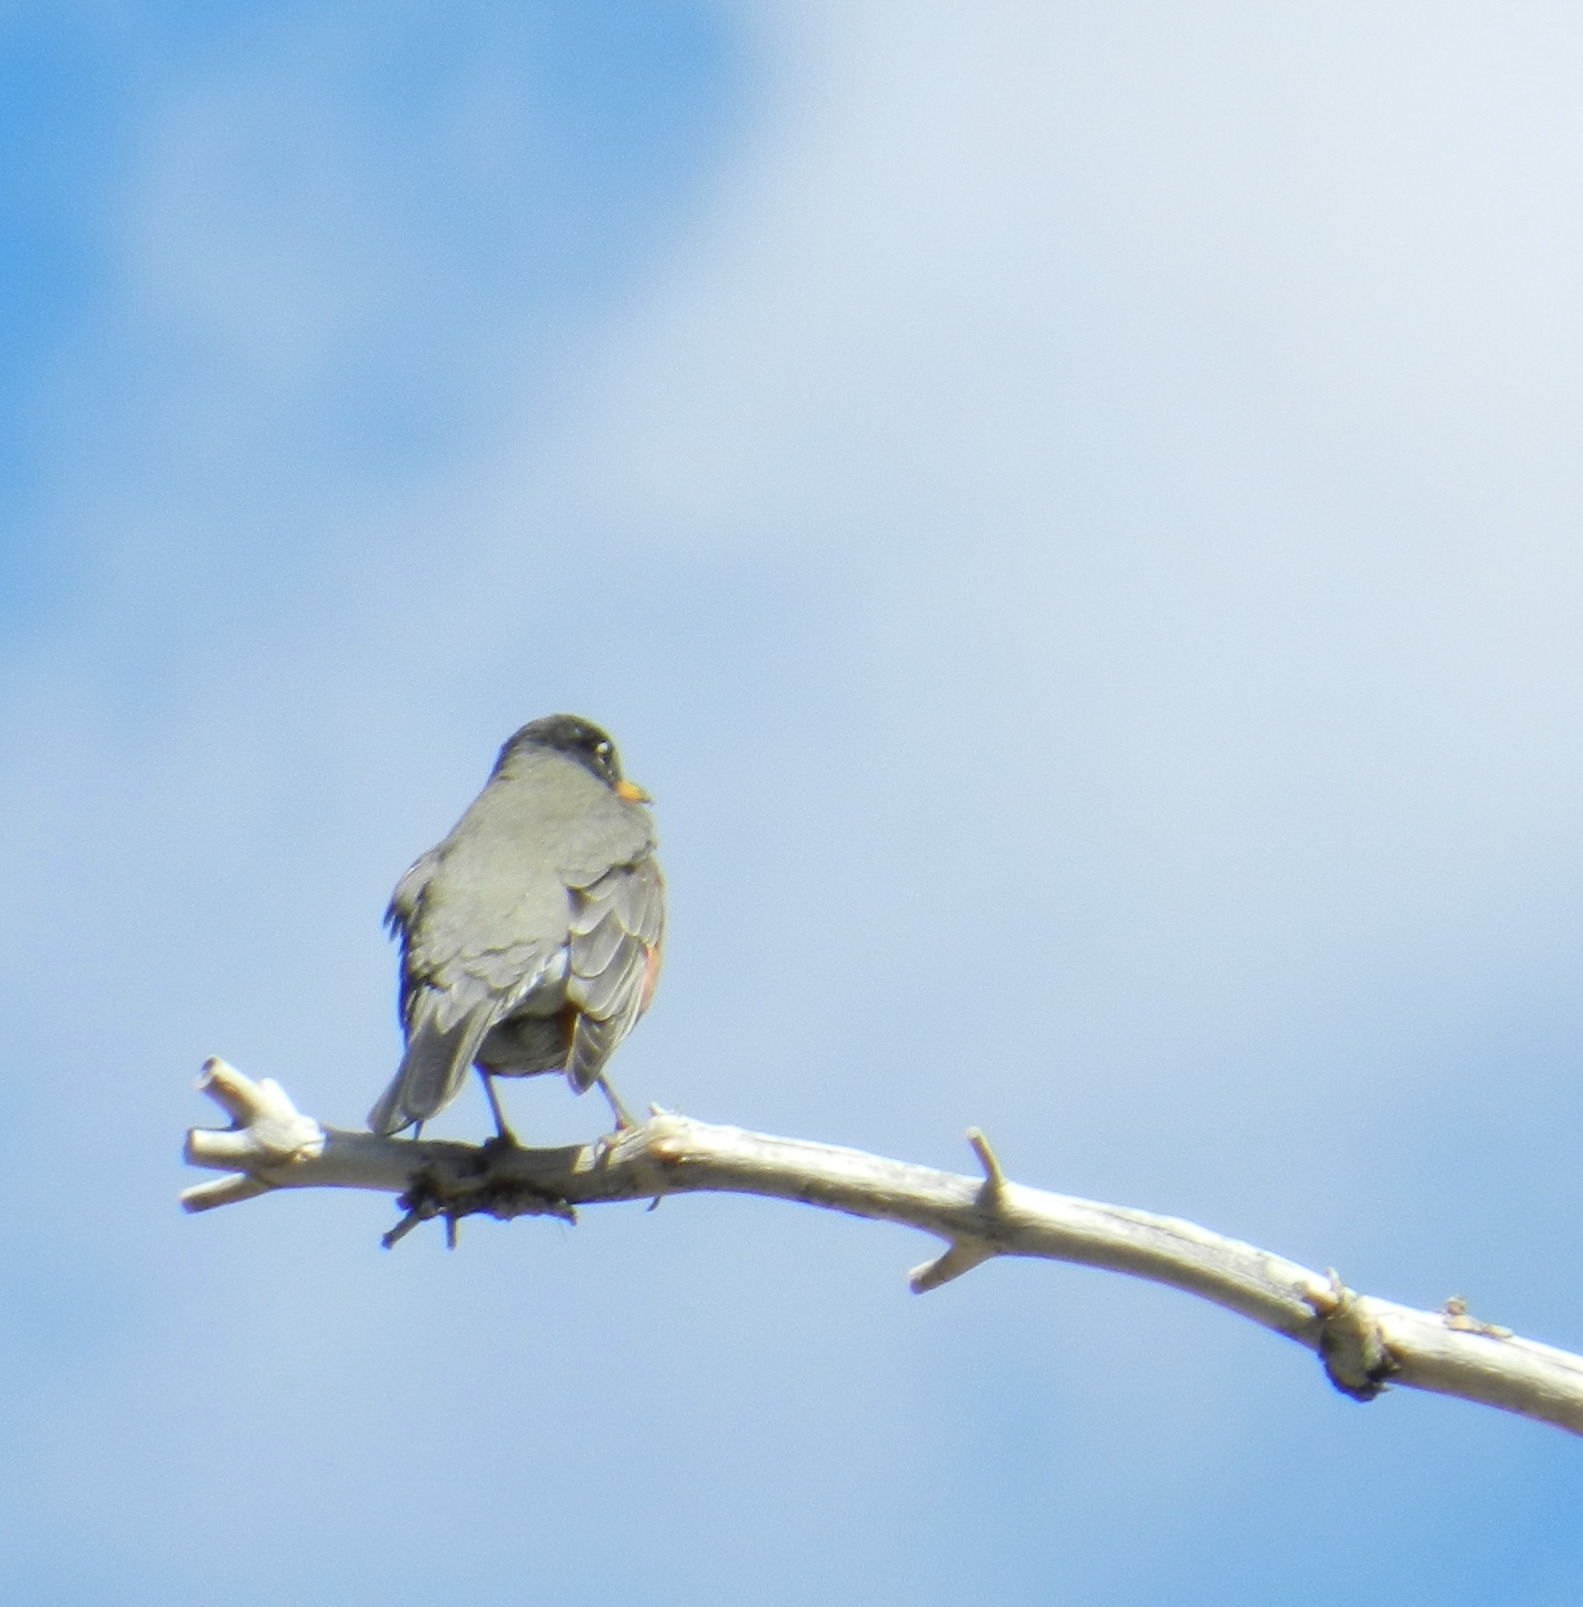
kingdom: Animalia
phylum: Chordata
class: Aves
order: Passeriformes
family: Turdidae
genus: Turdus
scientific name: Turdus migratorius
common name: American robin
